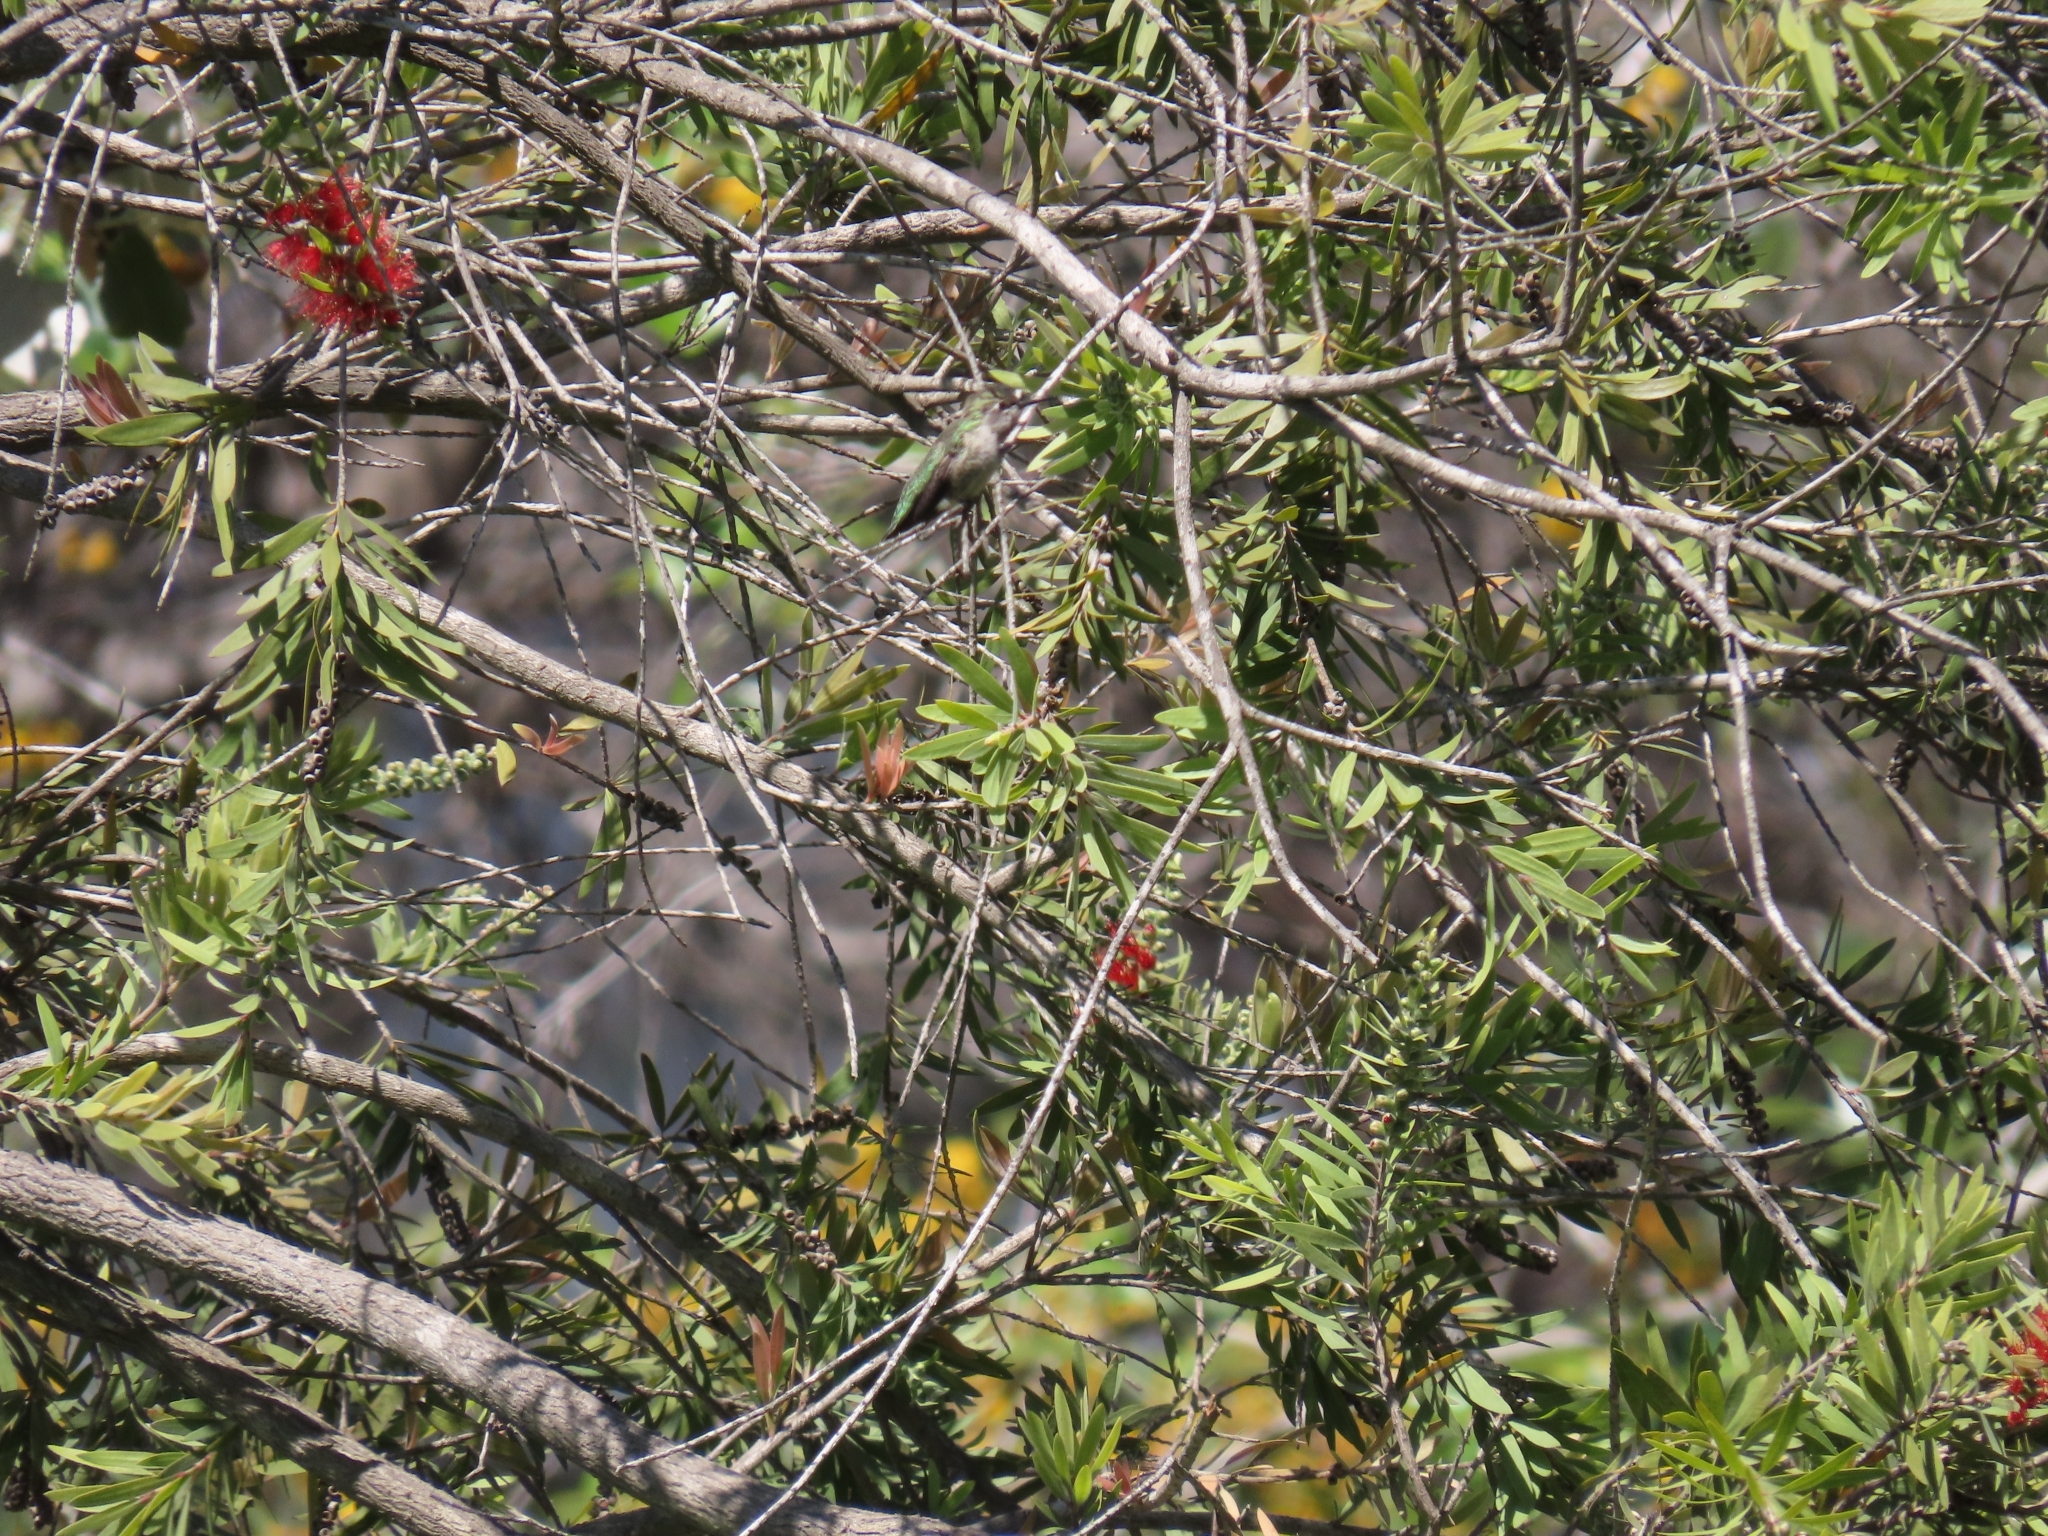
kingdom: Animalia
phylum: Chordata
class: Aves
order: Apodiformes
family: Trochilidae
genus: Calypte
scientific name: Calypte anna
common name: Anna's hummingbird
